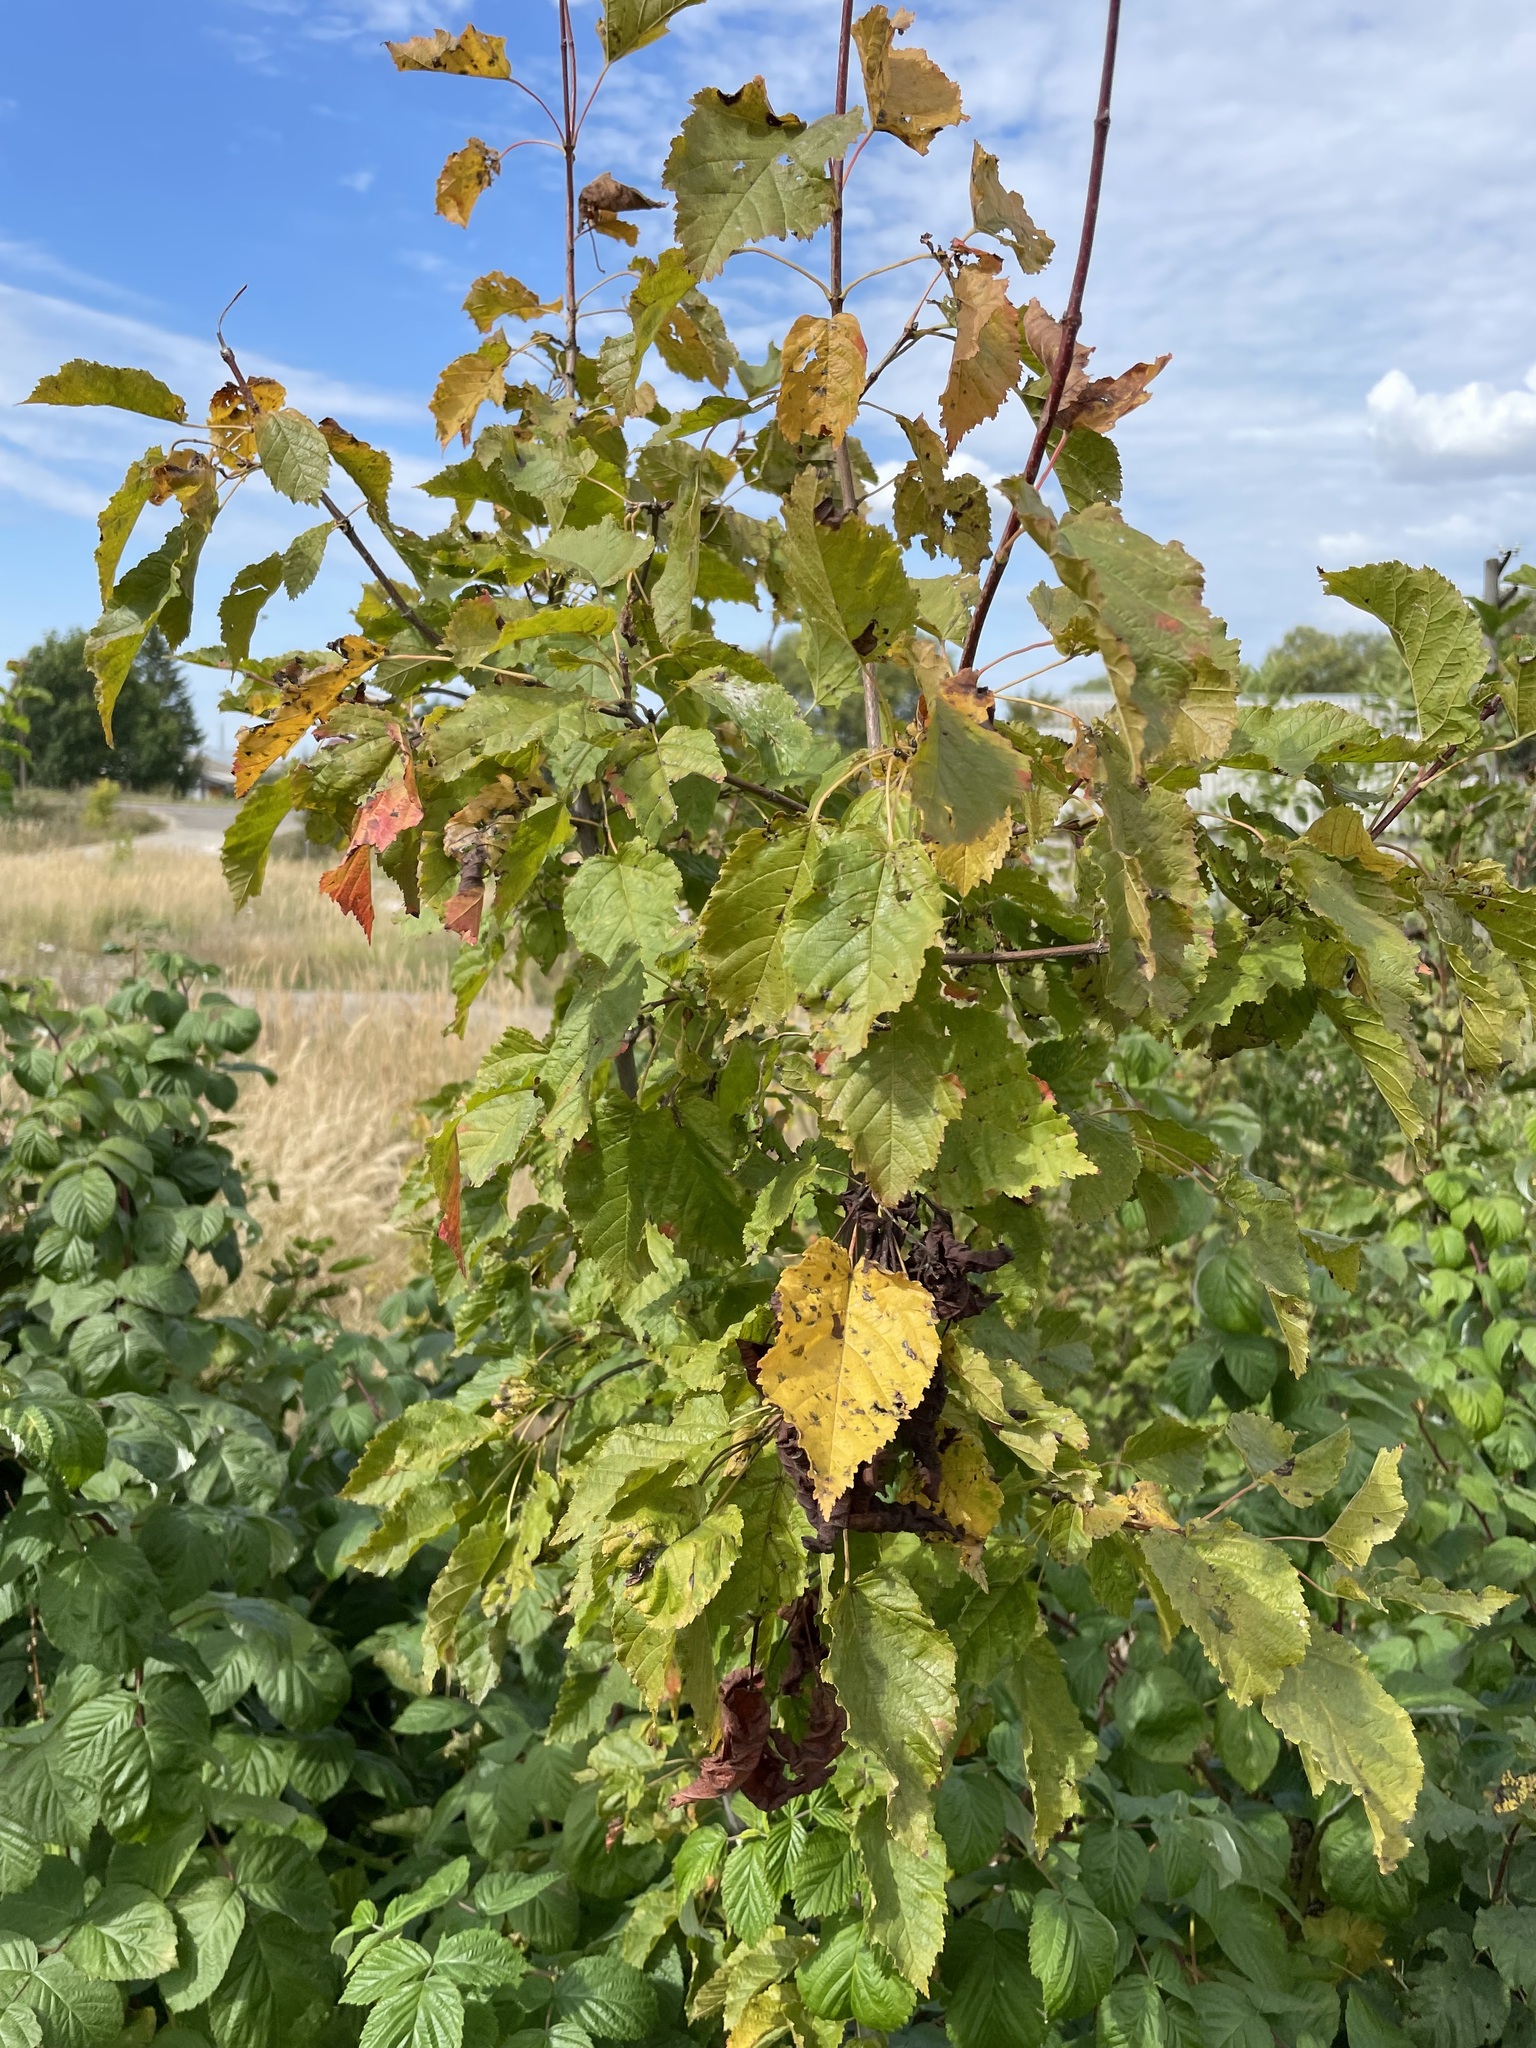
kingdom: Plantae
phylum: Tracheophyta
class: Magnoliopsida
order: Sapindales
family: Sapindaceae
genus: Acer
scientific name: Acer tataricum
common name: Tartar maple
